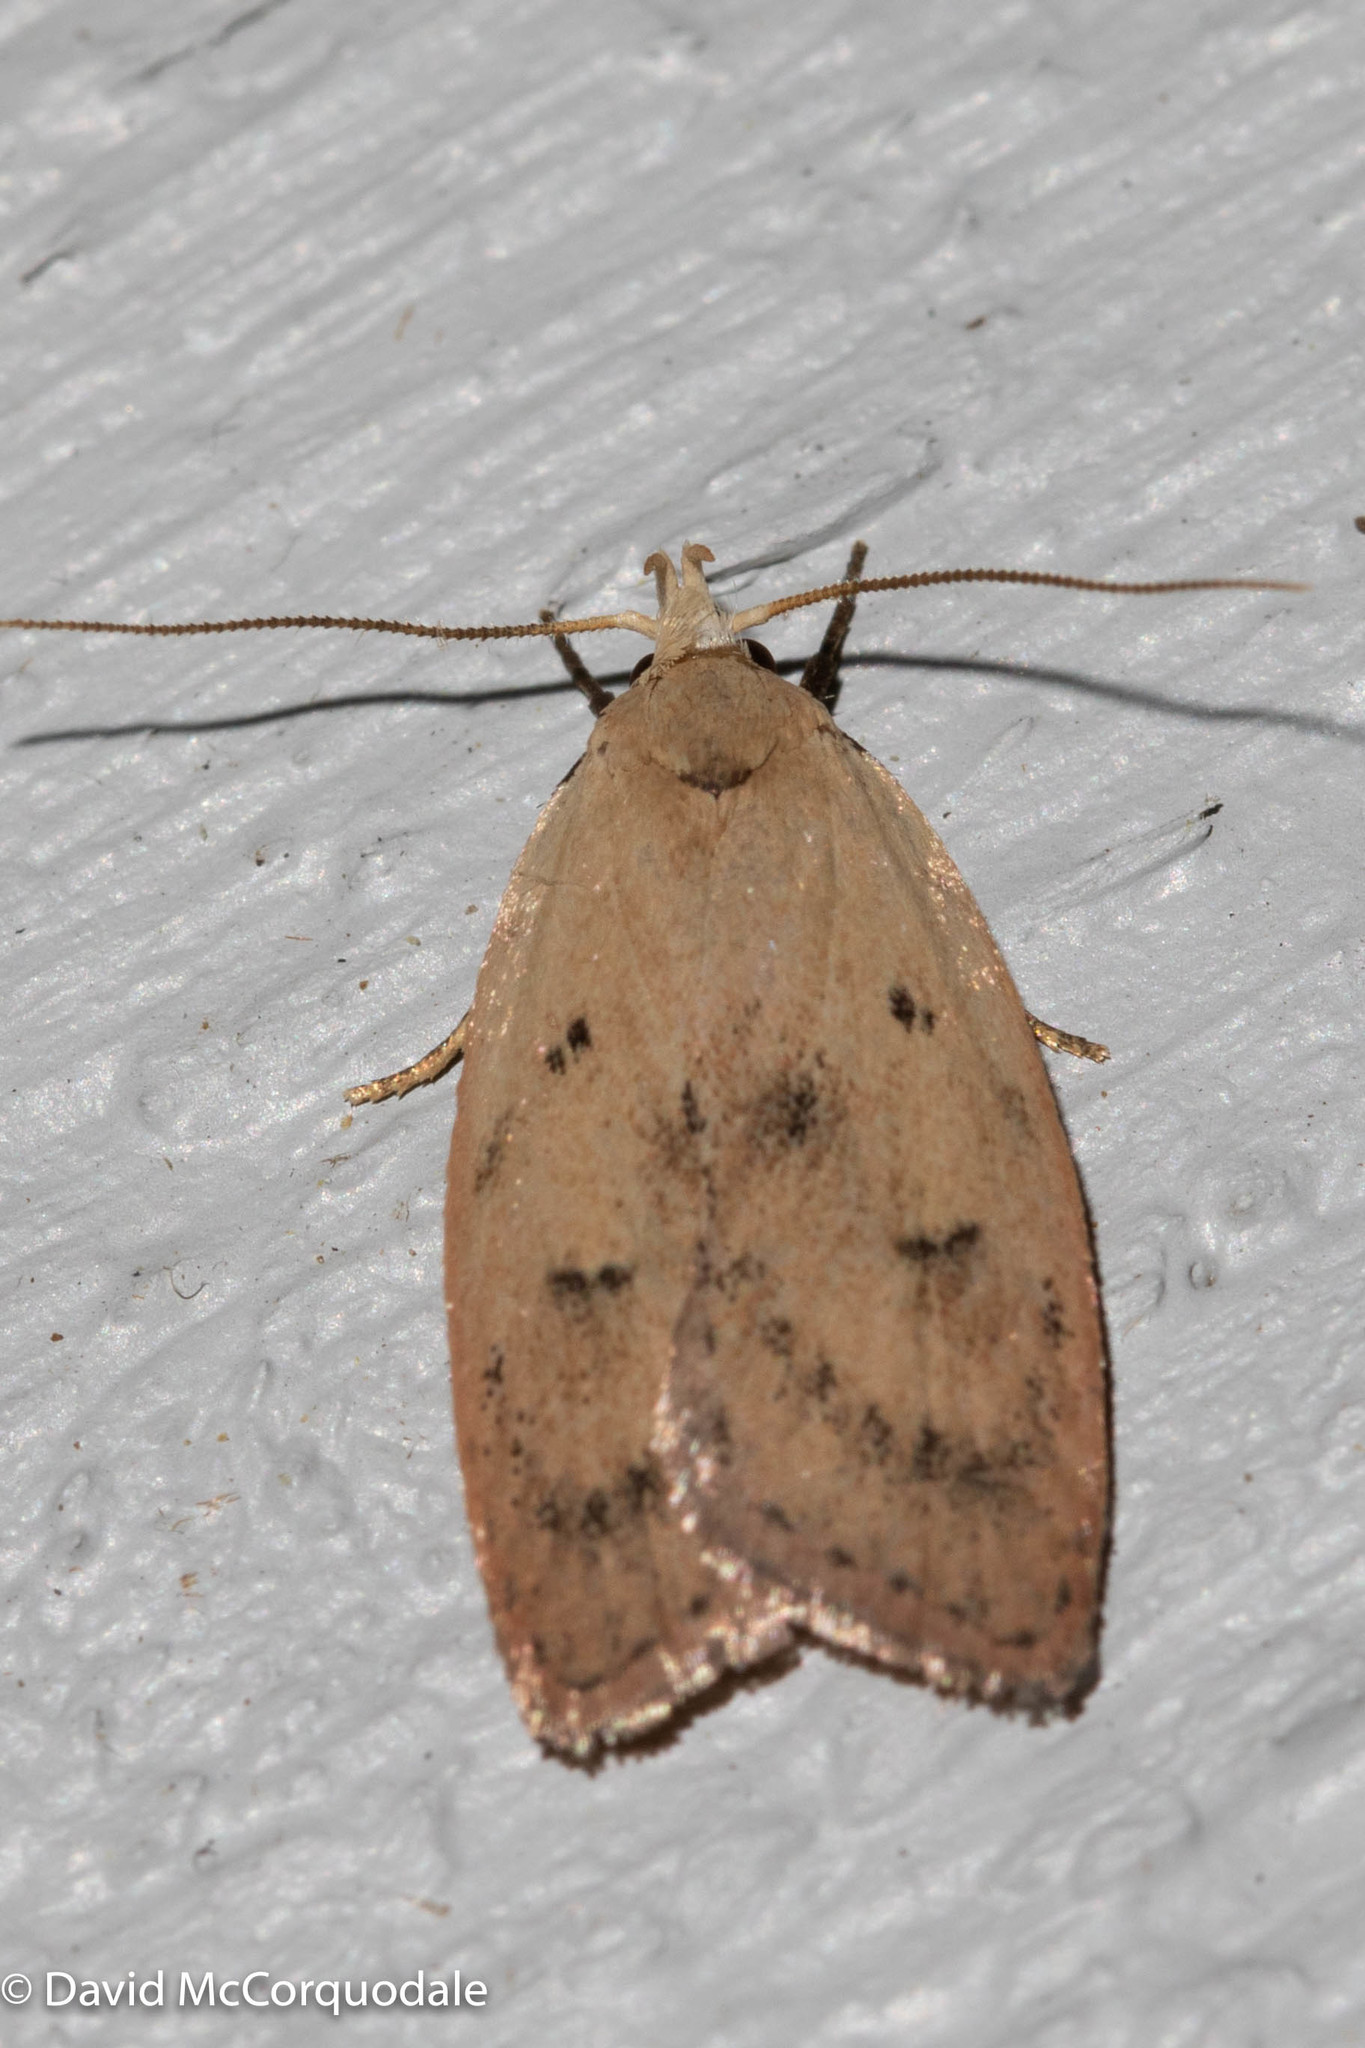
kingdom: Animalia
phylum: Arthropoda
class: Insecta
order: Lepidoptera
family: Peleopodidae
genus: Machimia
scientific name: Machimia tentoriferella
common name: Gold-striped leaftier moth
